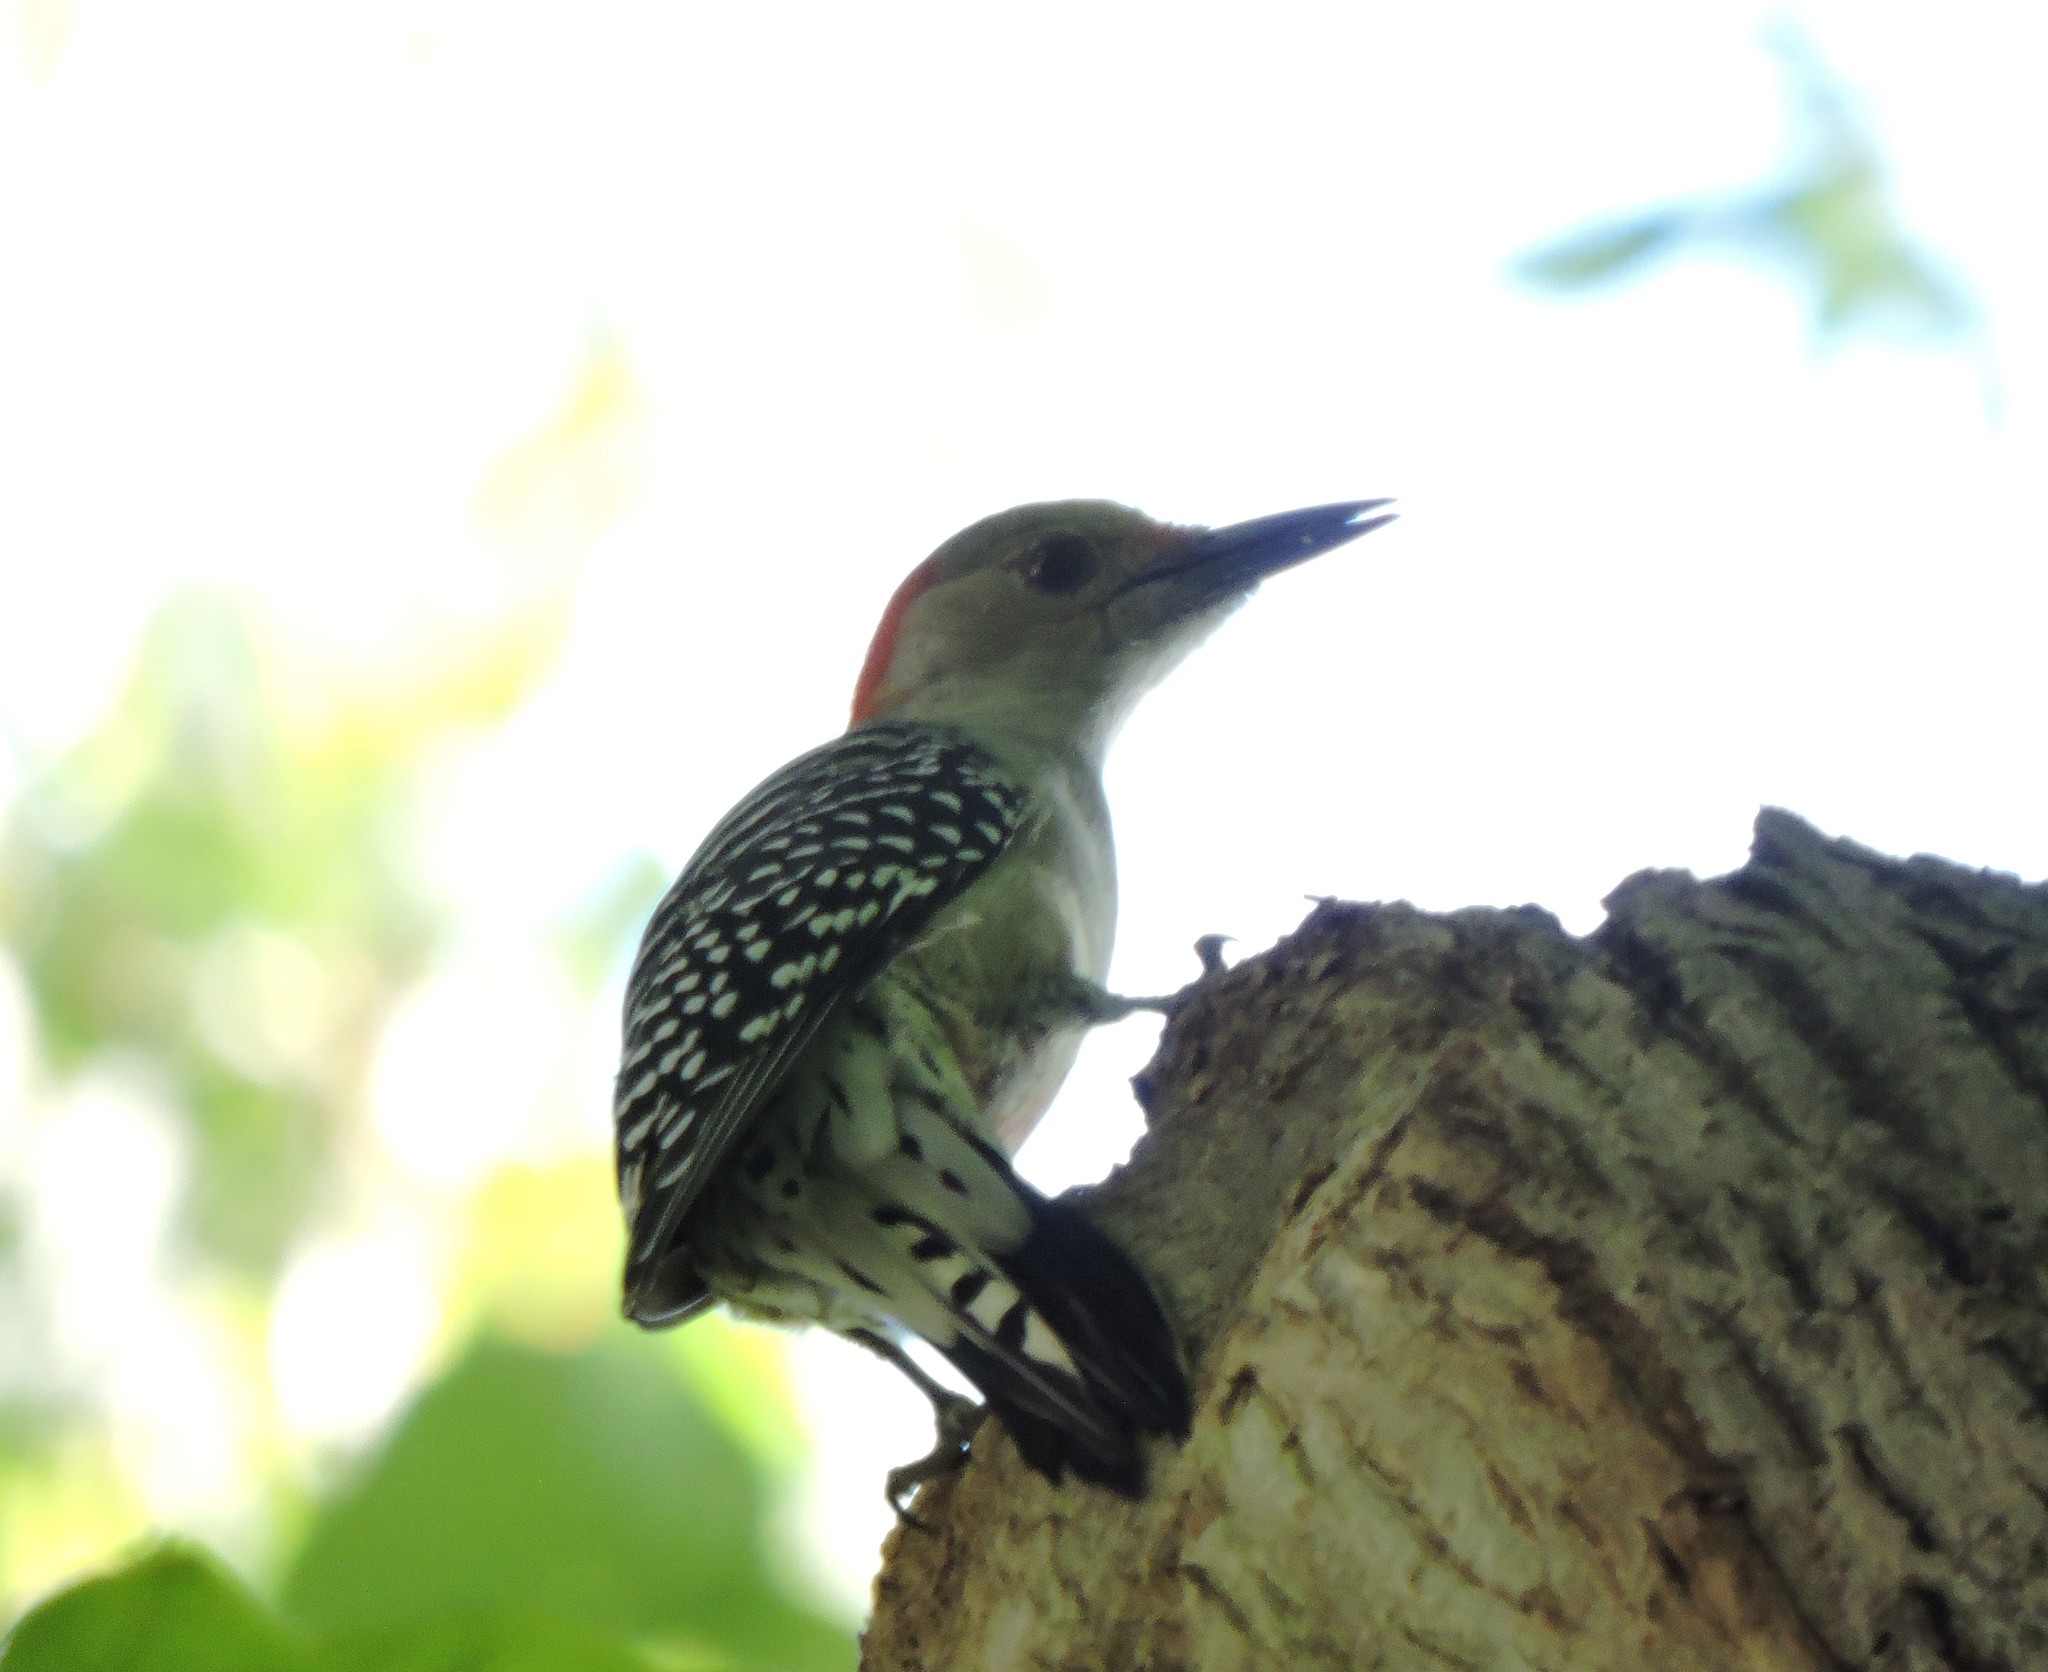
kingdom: Animalia
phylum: Chordata
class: Aves
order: Piciformes
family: Picidae
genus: Melanerpes
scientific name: Melanerpes carolinus
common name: Red-bellied woodpecker
